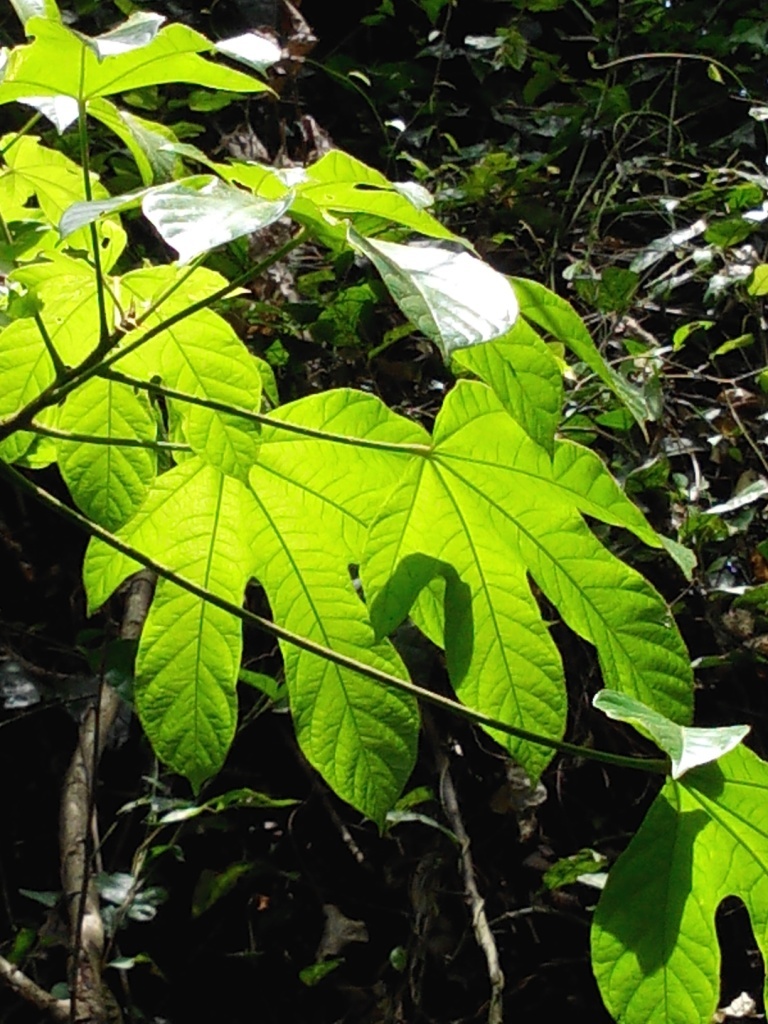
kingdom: Plantae
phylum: Tracheophyta
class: Magnoliopsida
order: Malvales
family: Malvaceae
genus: Cola
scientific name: Cola millenii
